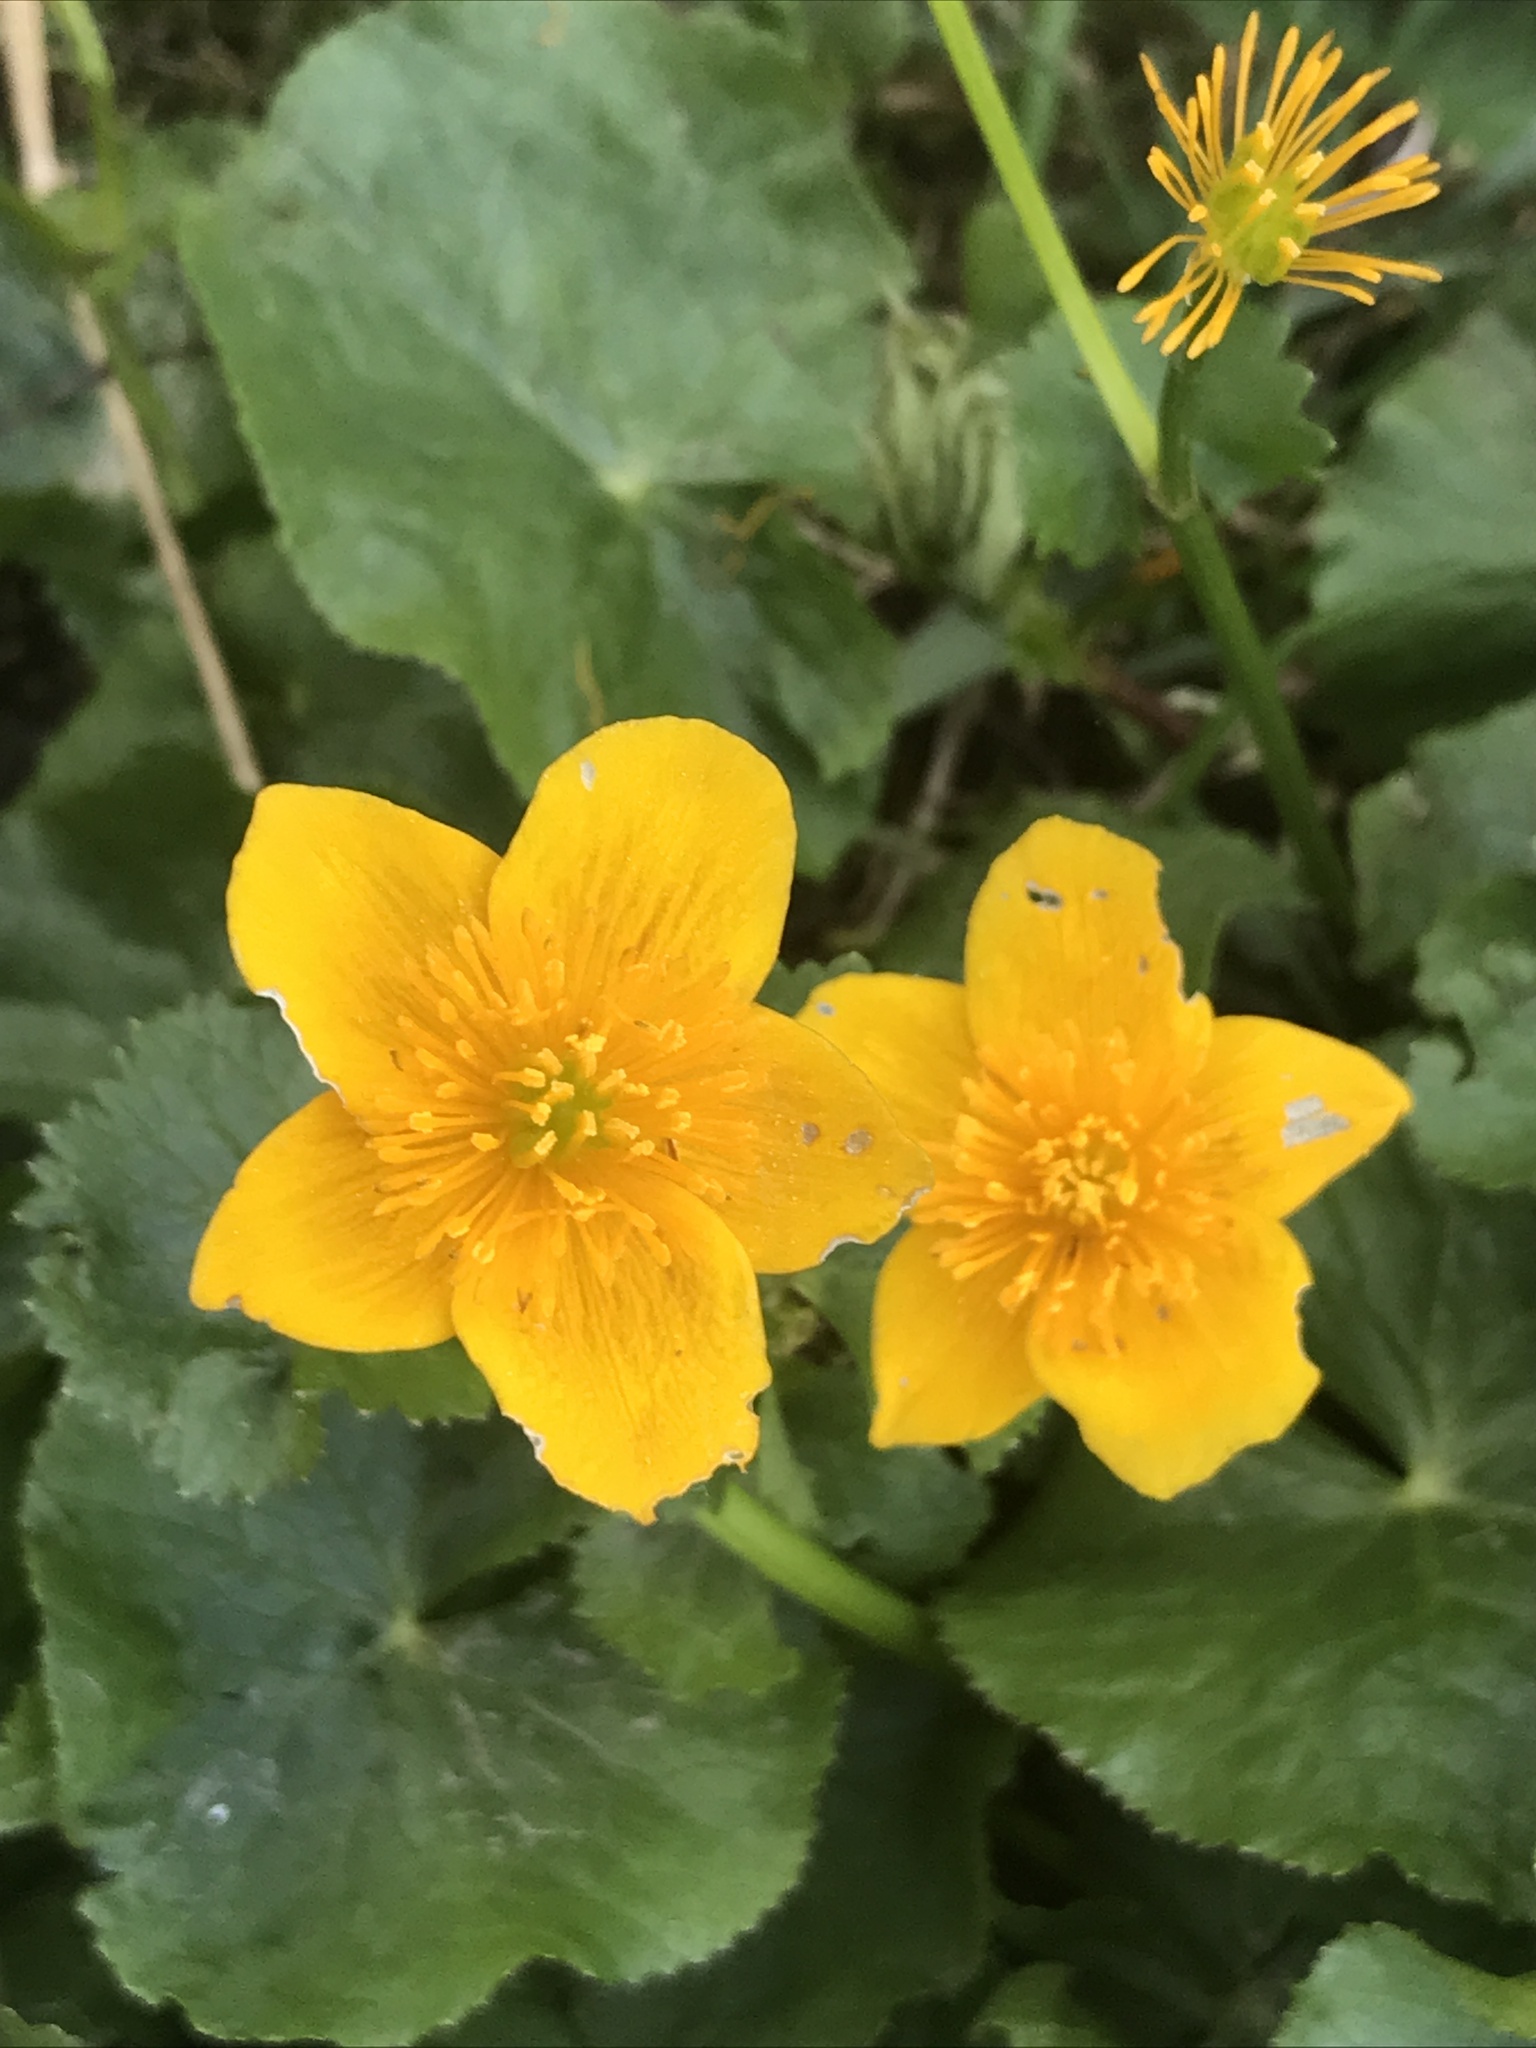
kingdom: Plantae
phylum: Tracheophyta
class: Magnoliopsida
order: Ranunculales
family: Ranunculaceae
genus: Caltha
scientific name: Caltha palustris
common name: Marsh marigold
